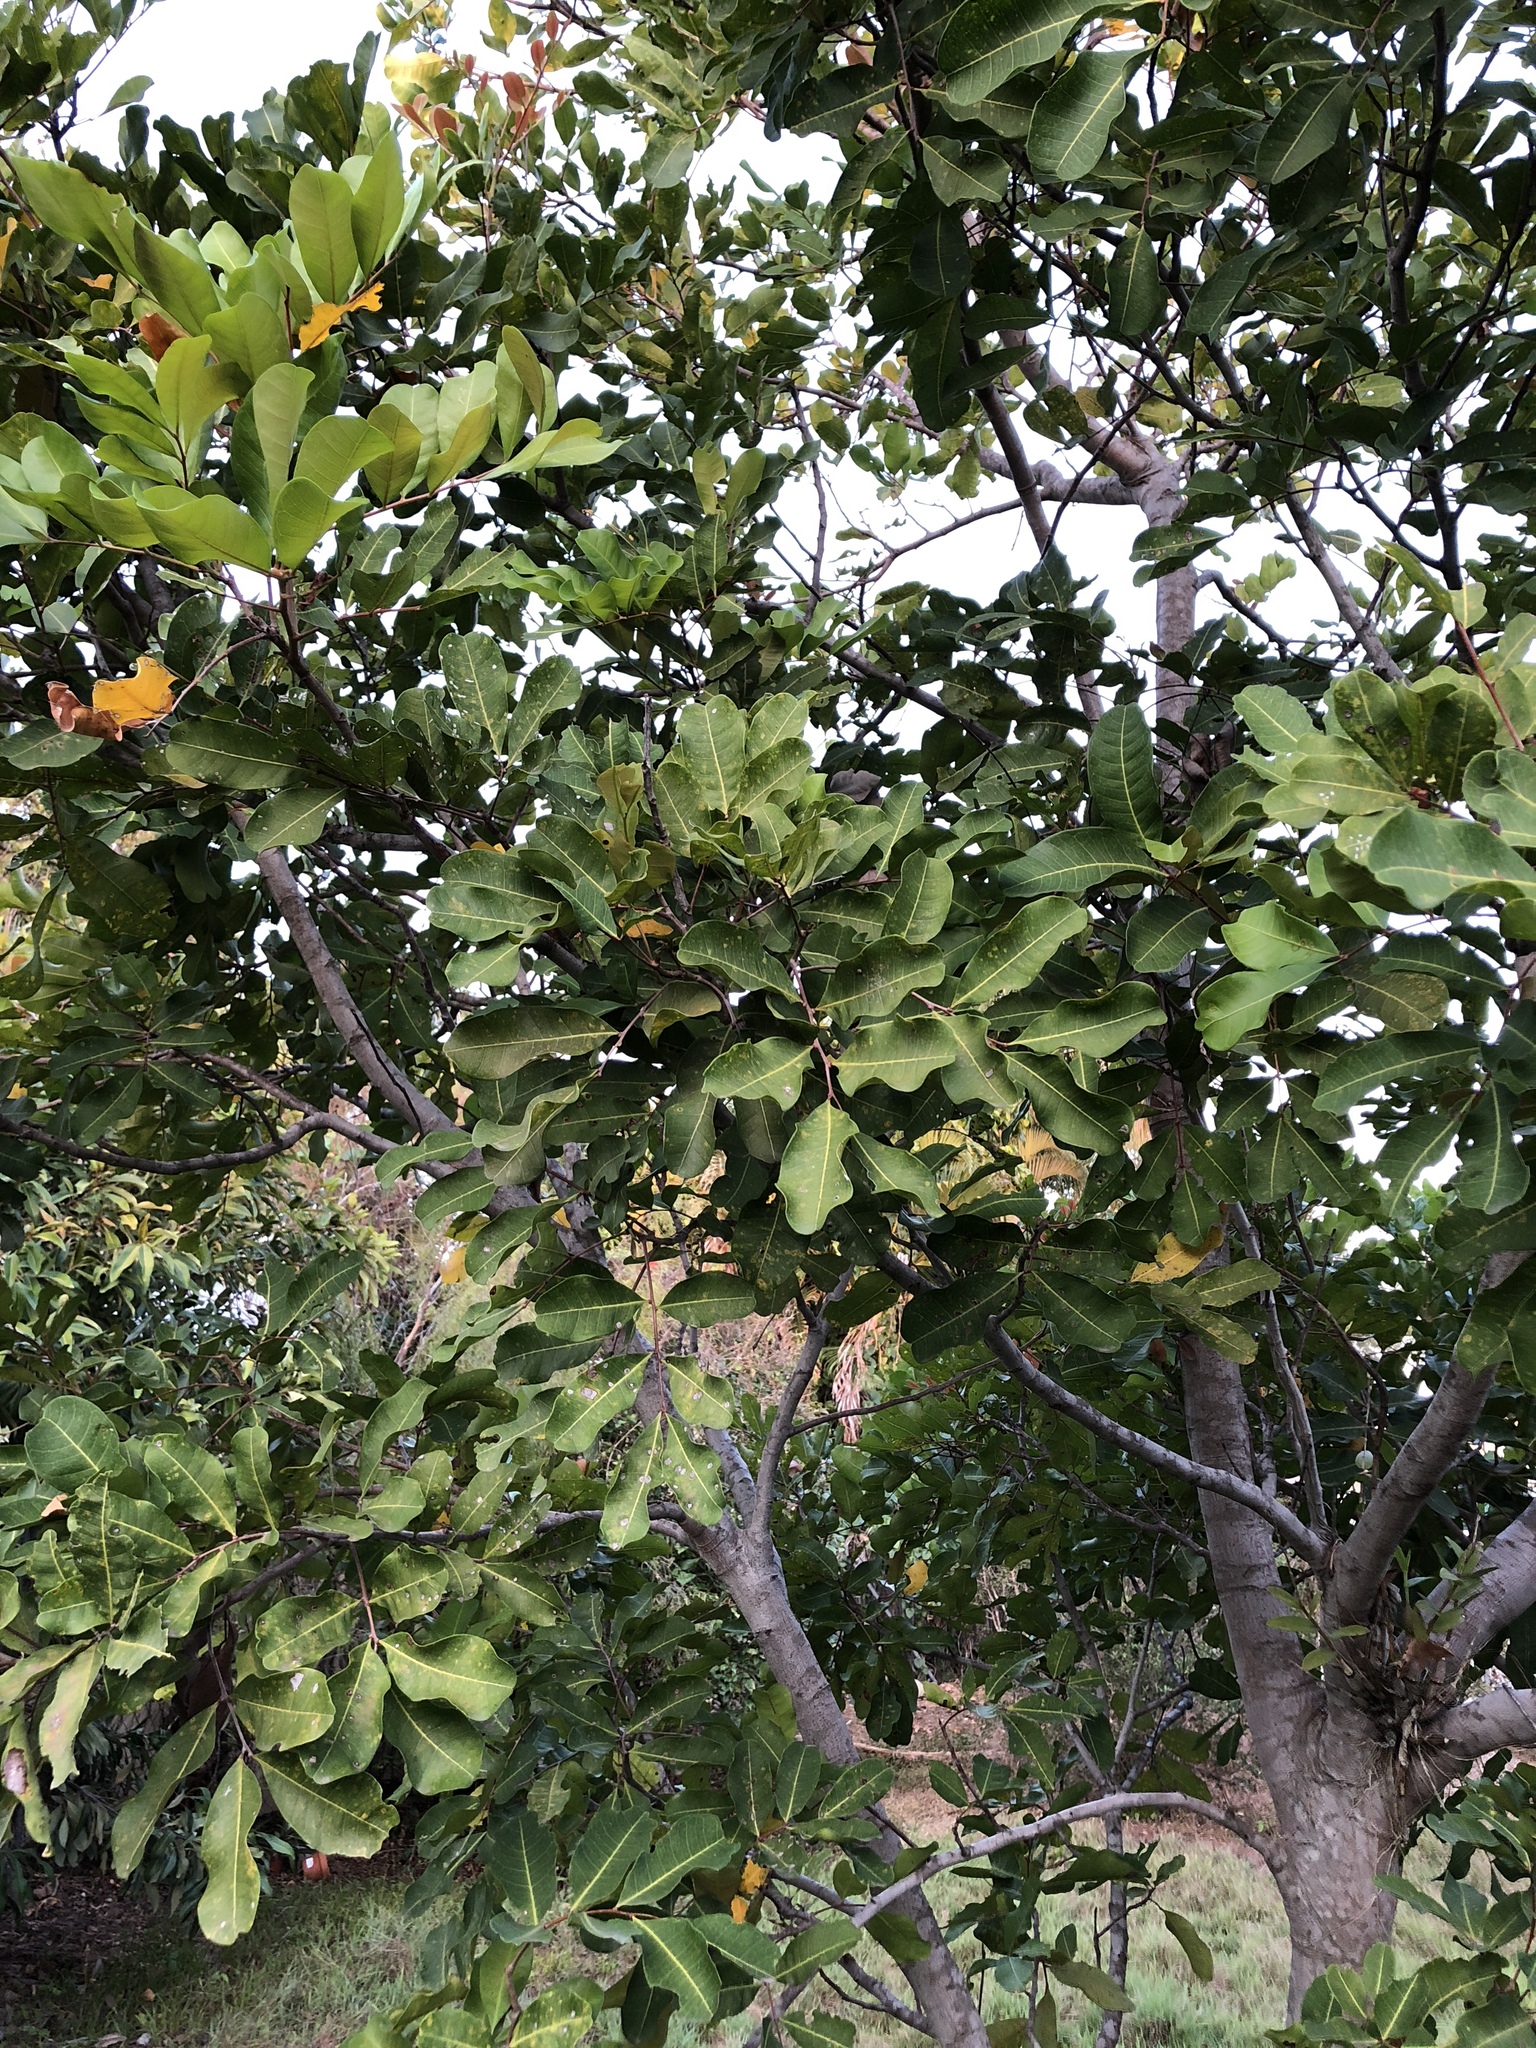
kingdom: Plantae
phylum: Tracheophyta
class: Magnoliopsida
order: Sapindales
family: Sapindaceae
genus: Cupaniopsis
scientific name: Cupaniopsis anacardioides
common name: Carrotwood
